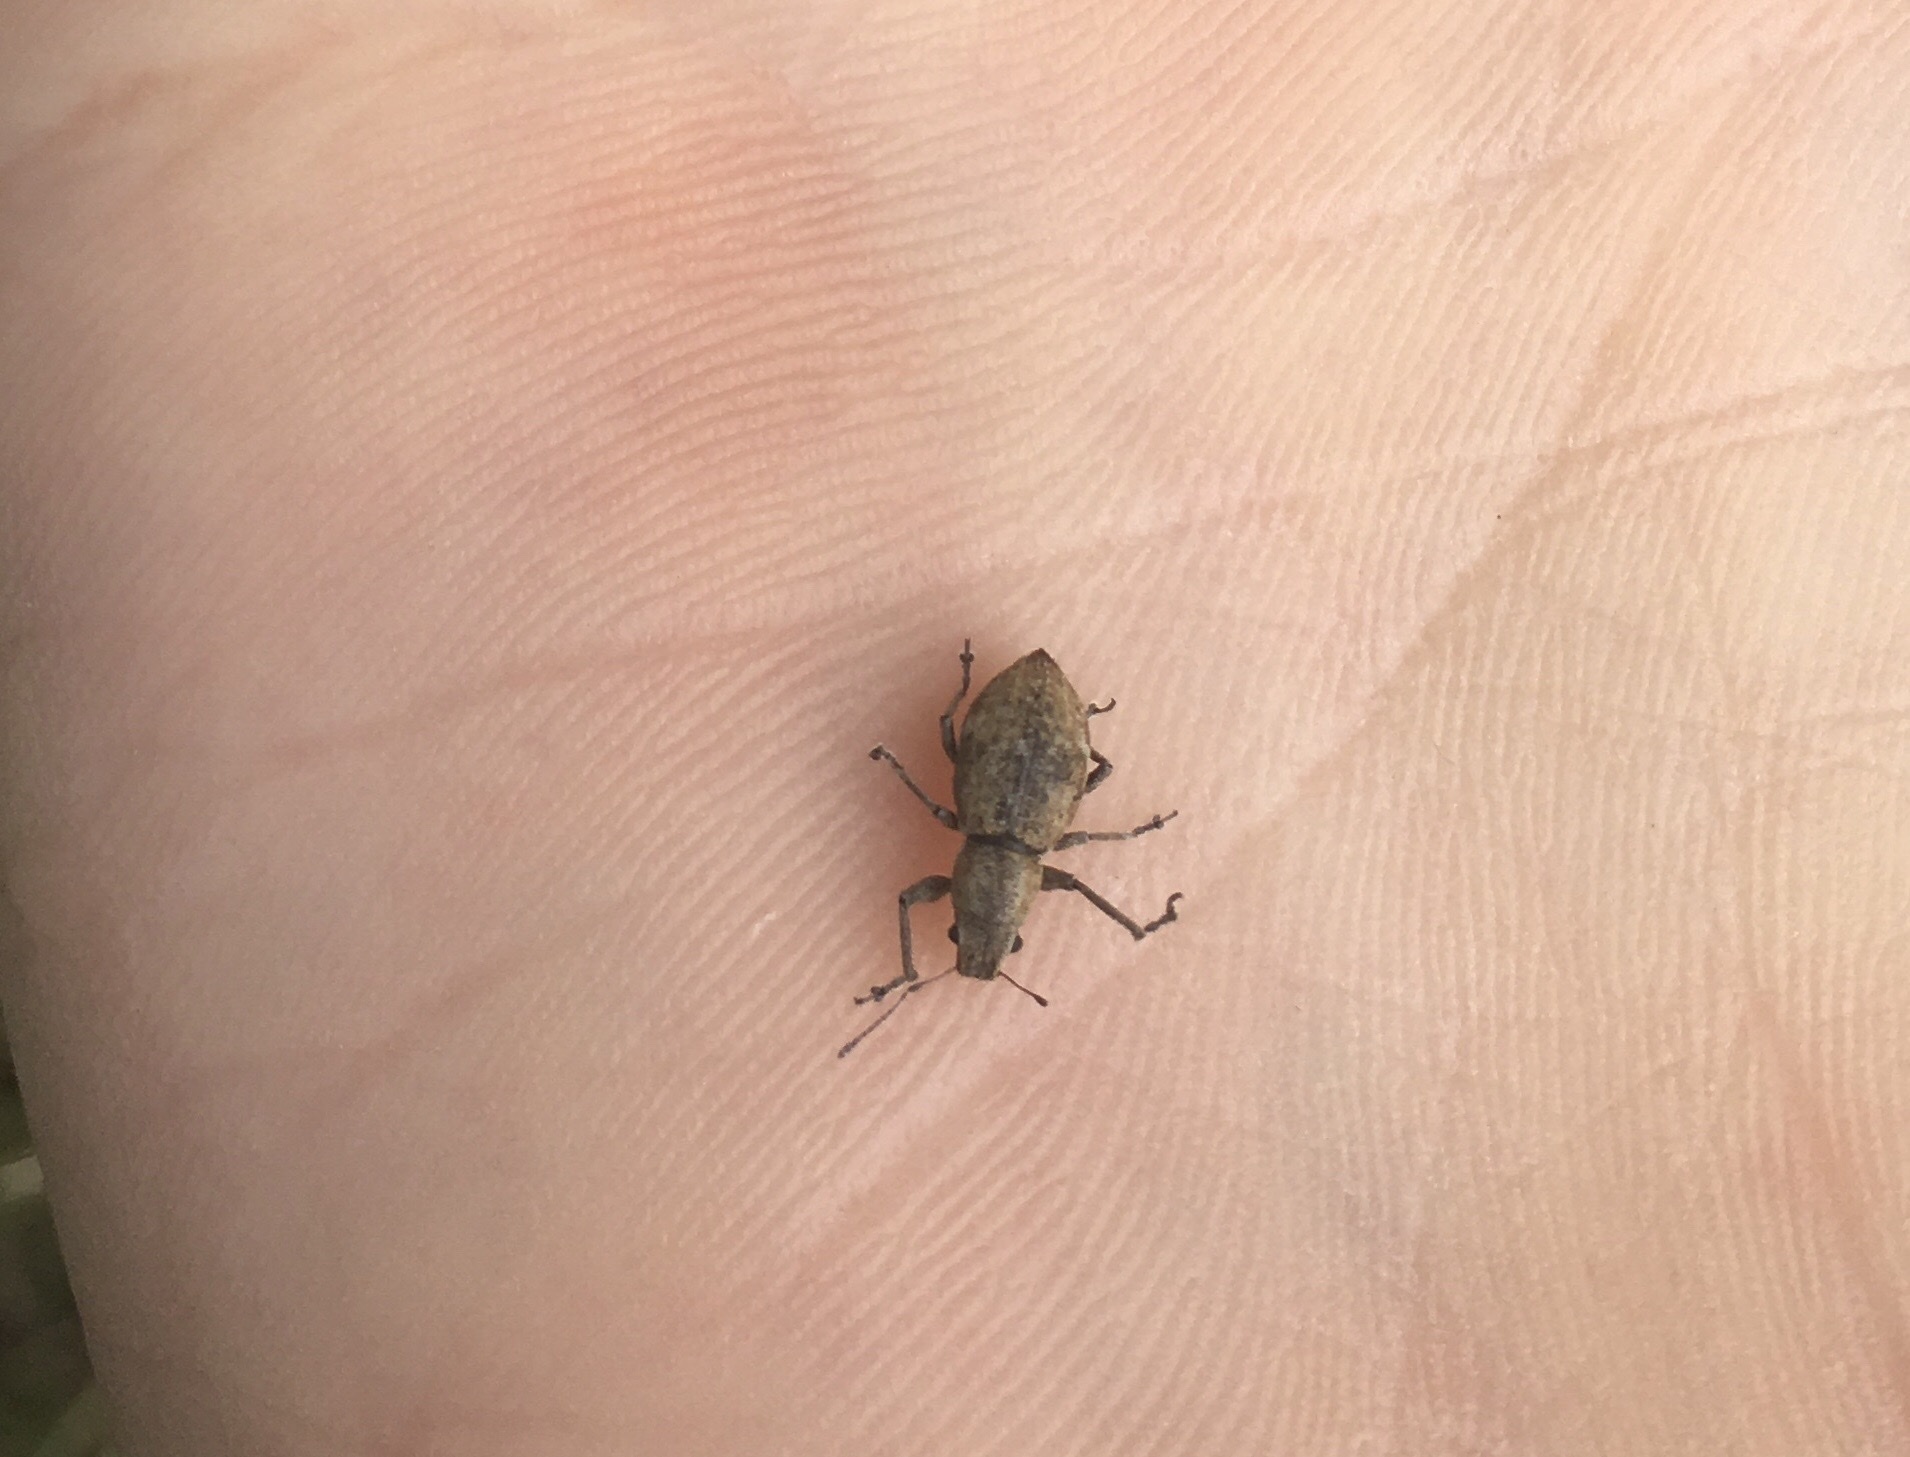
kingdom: Animalia
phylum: Arthropoda
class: Insecta
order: Coleoptera
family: Curculionidae
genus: Naupactus
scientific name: Naupactus cervinus
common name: Fuller rose beetle
